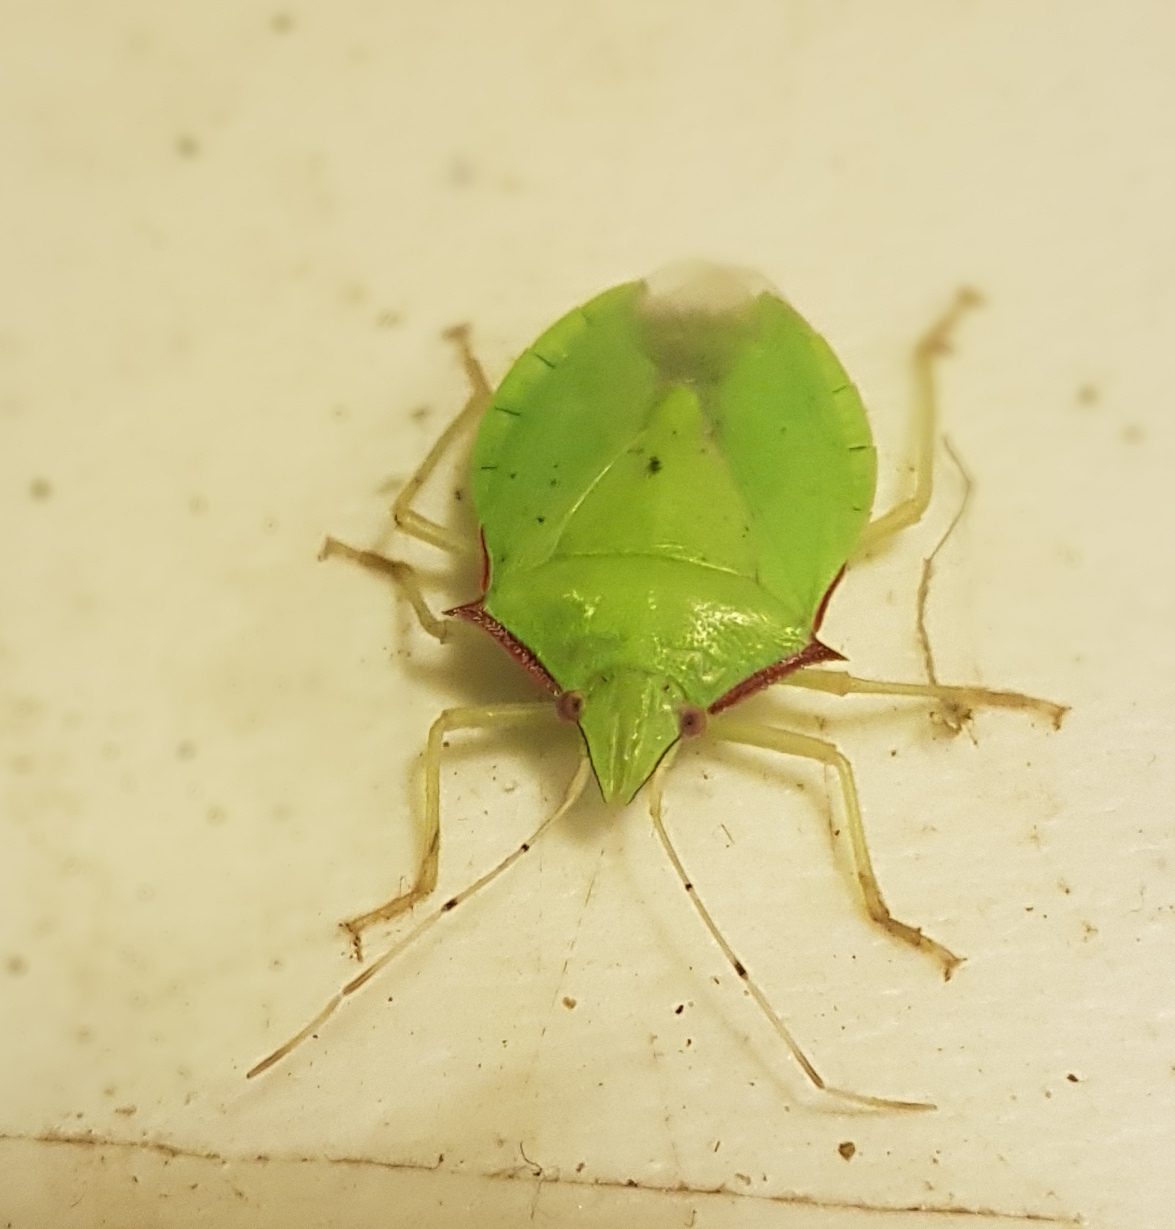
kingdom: Animalia
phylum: Arthropoda
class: Insecta
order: Hemiptera
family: Pentatomidae
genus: Chlorocoris
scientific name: Chlorocoris distinctus
